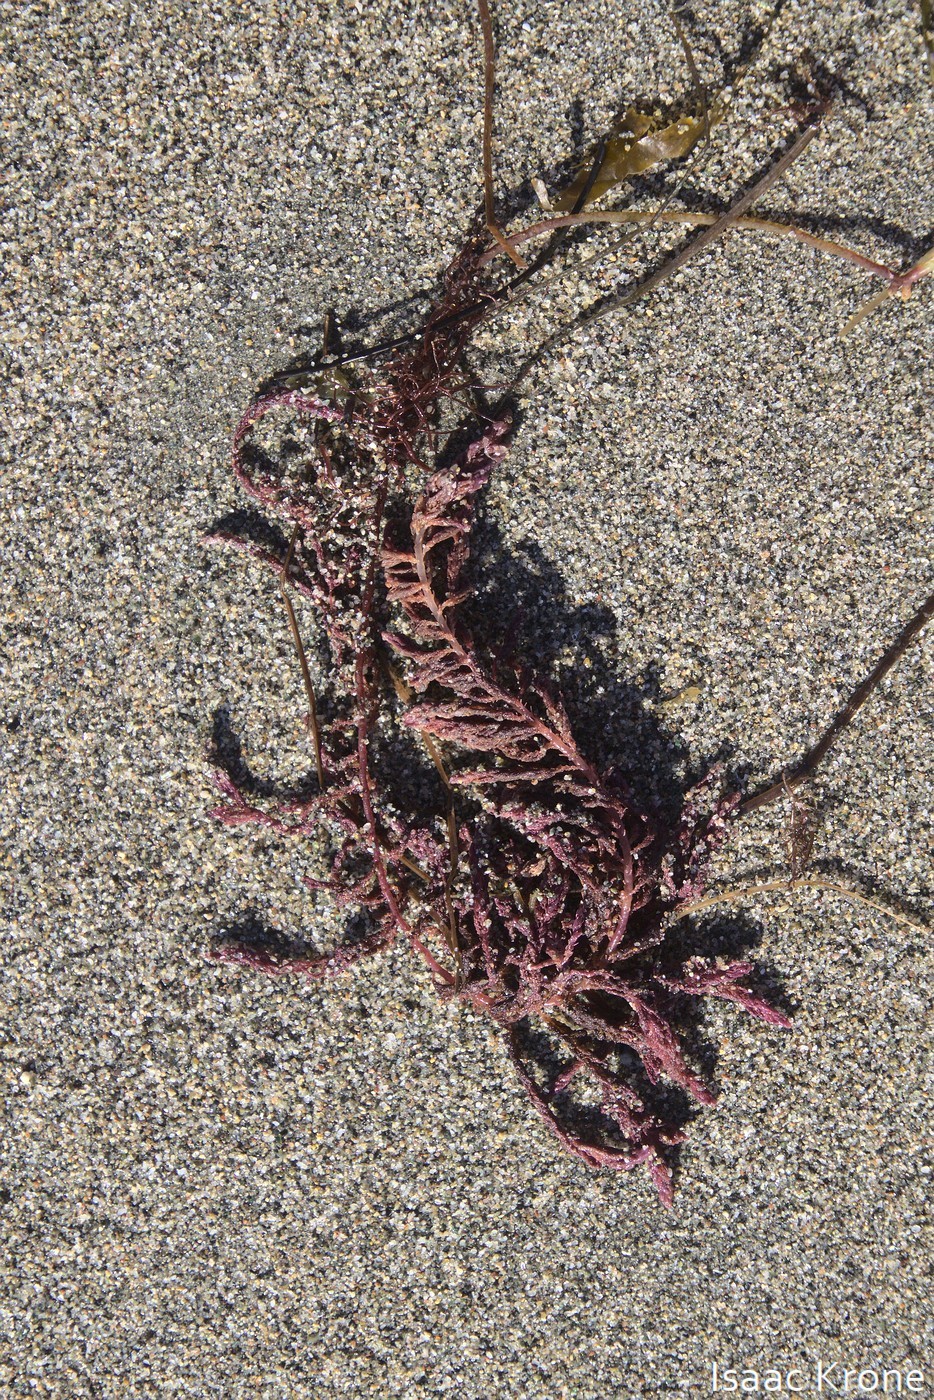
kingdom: Plantae
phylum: Rhodophyta
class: Florideophyceae
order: Bonnemaisoniales
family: Bonnemaisoniaceae
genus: Asparagopsis
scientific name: Asparagopsis taxiformis
